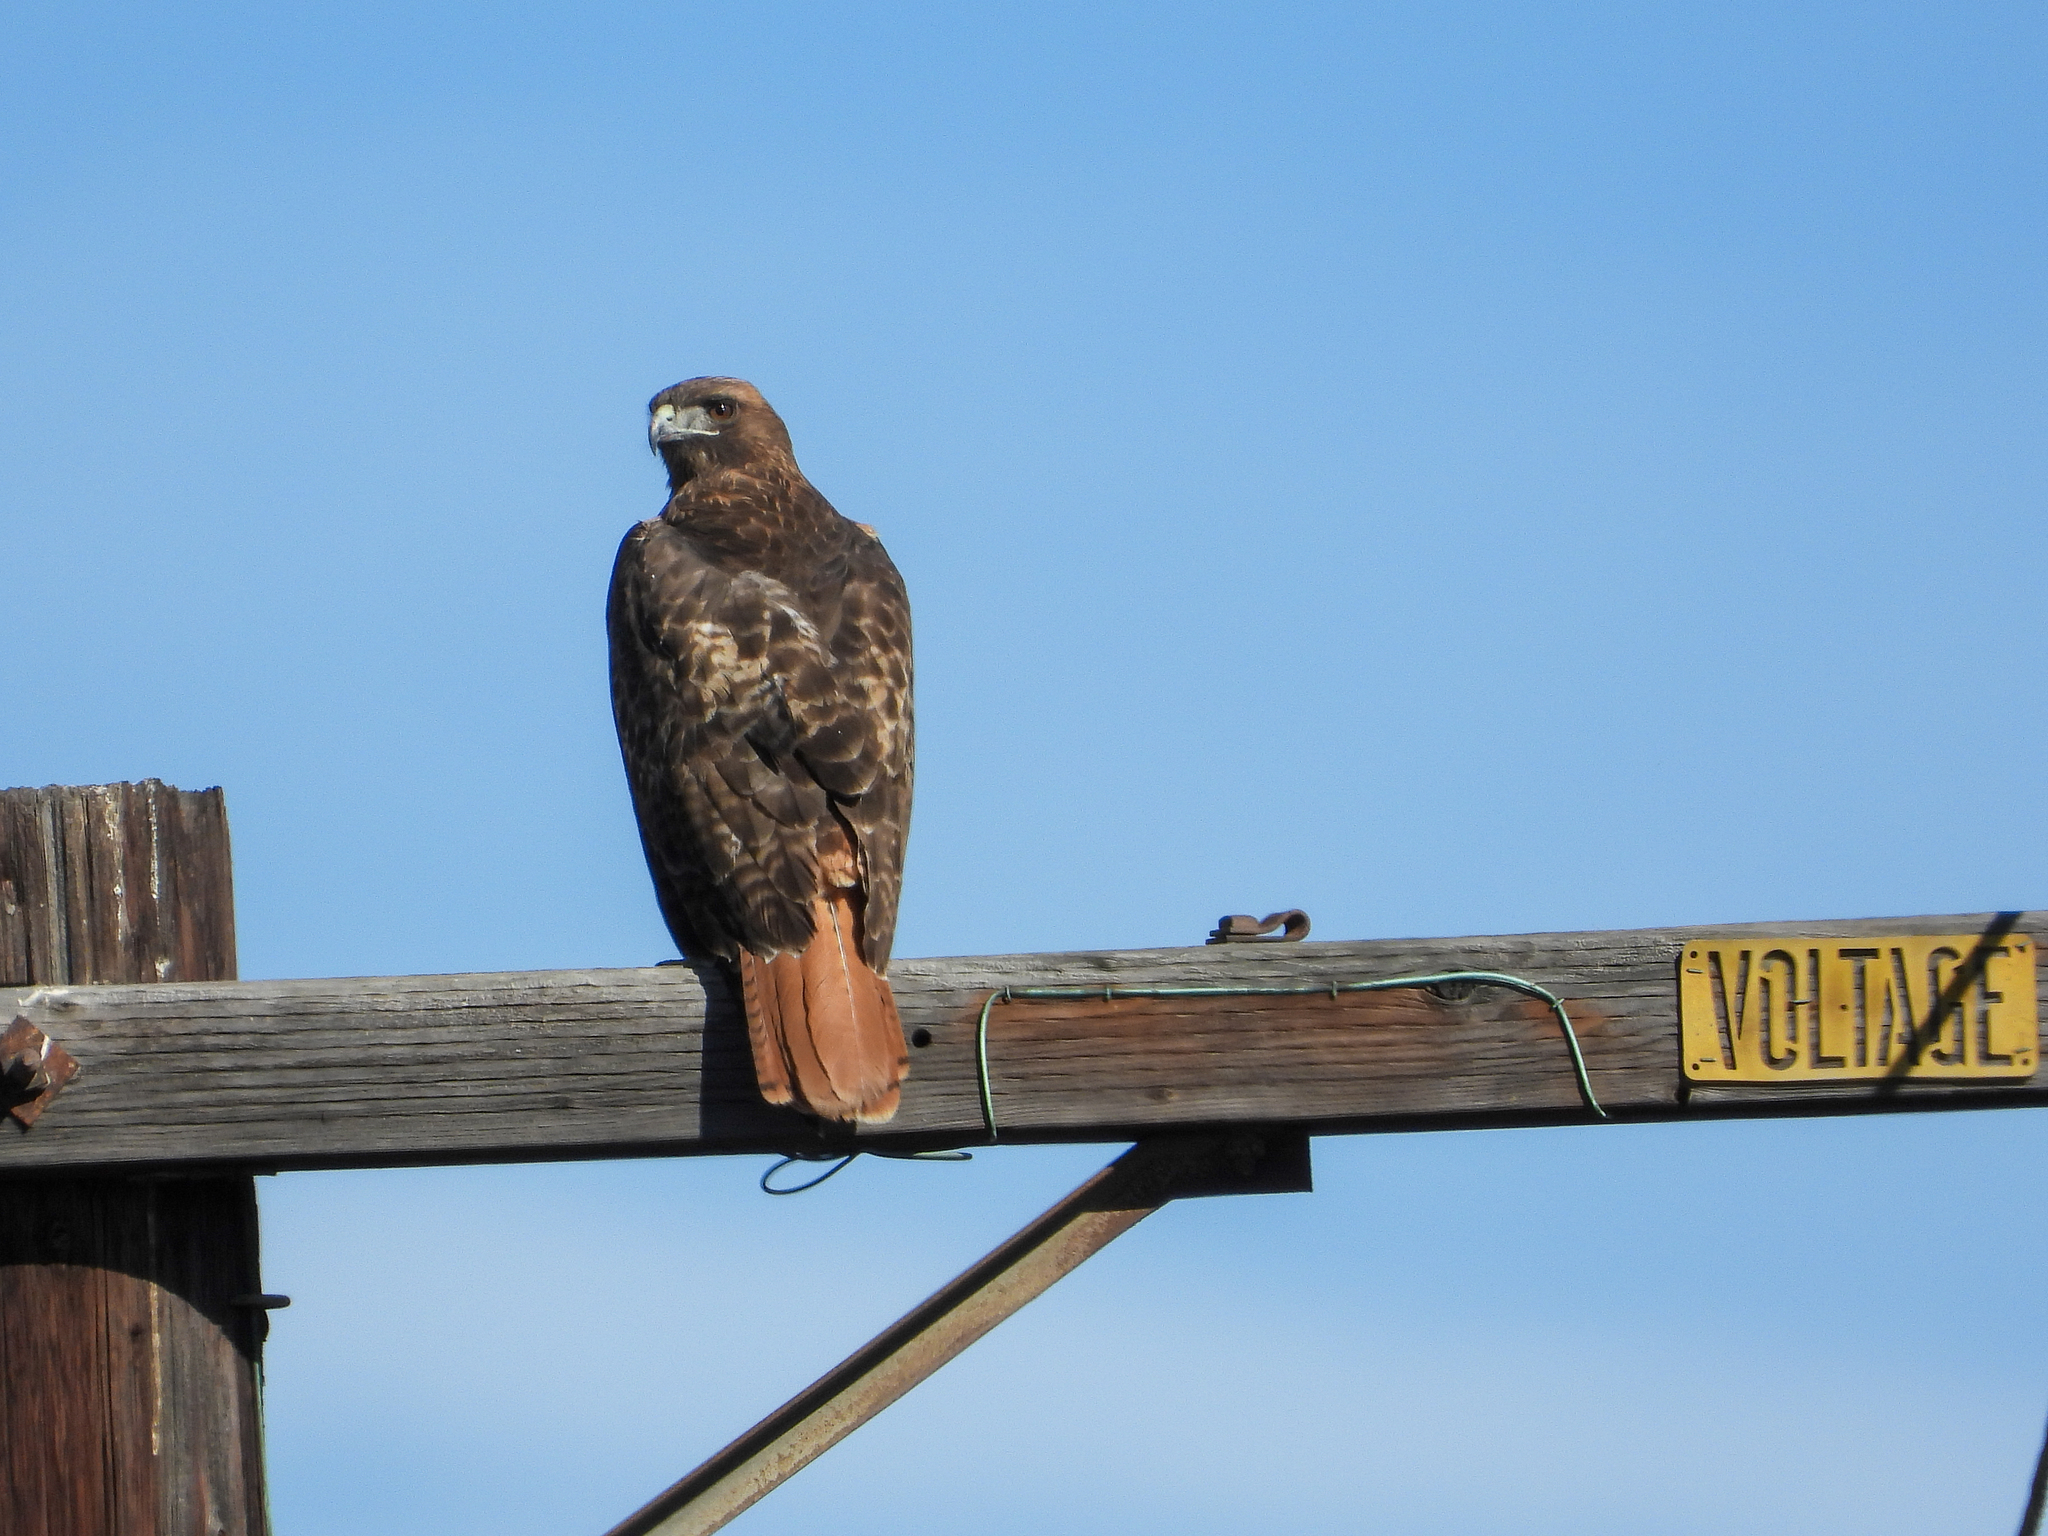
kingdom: Animalia
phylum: Chordata
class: Aves
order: Accipitriformes
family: Accipitridae
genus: Buteo
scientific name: Buteo jamaicensis
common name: Red-tailed hawk
